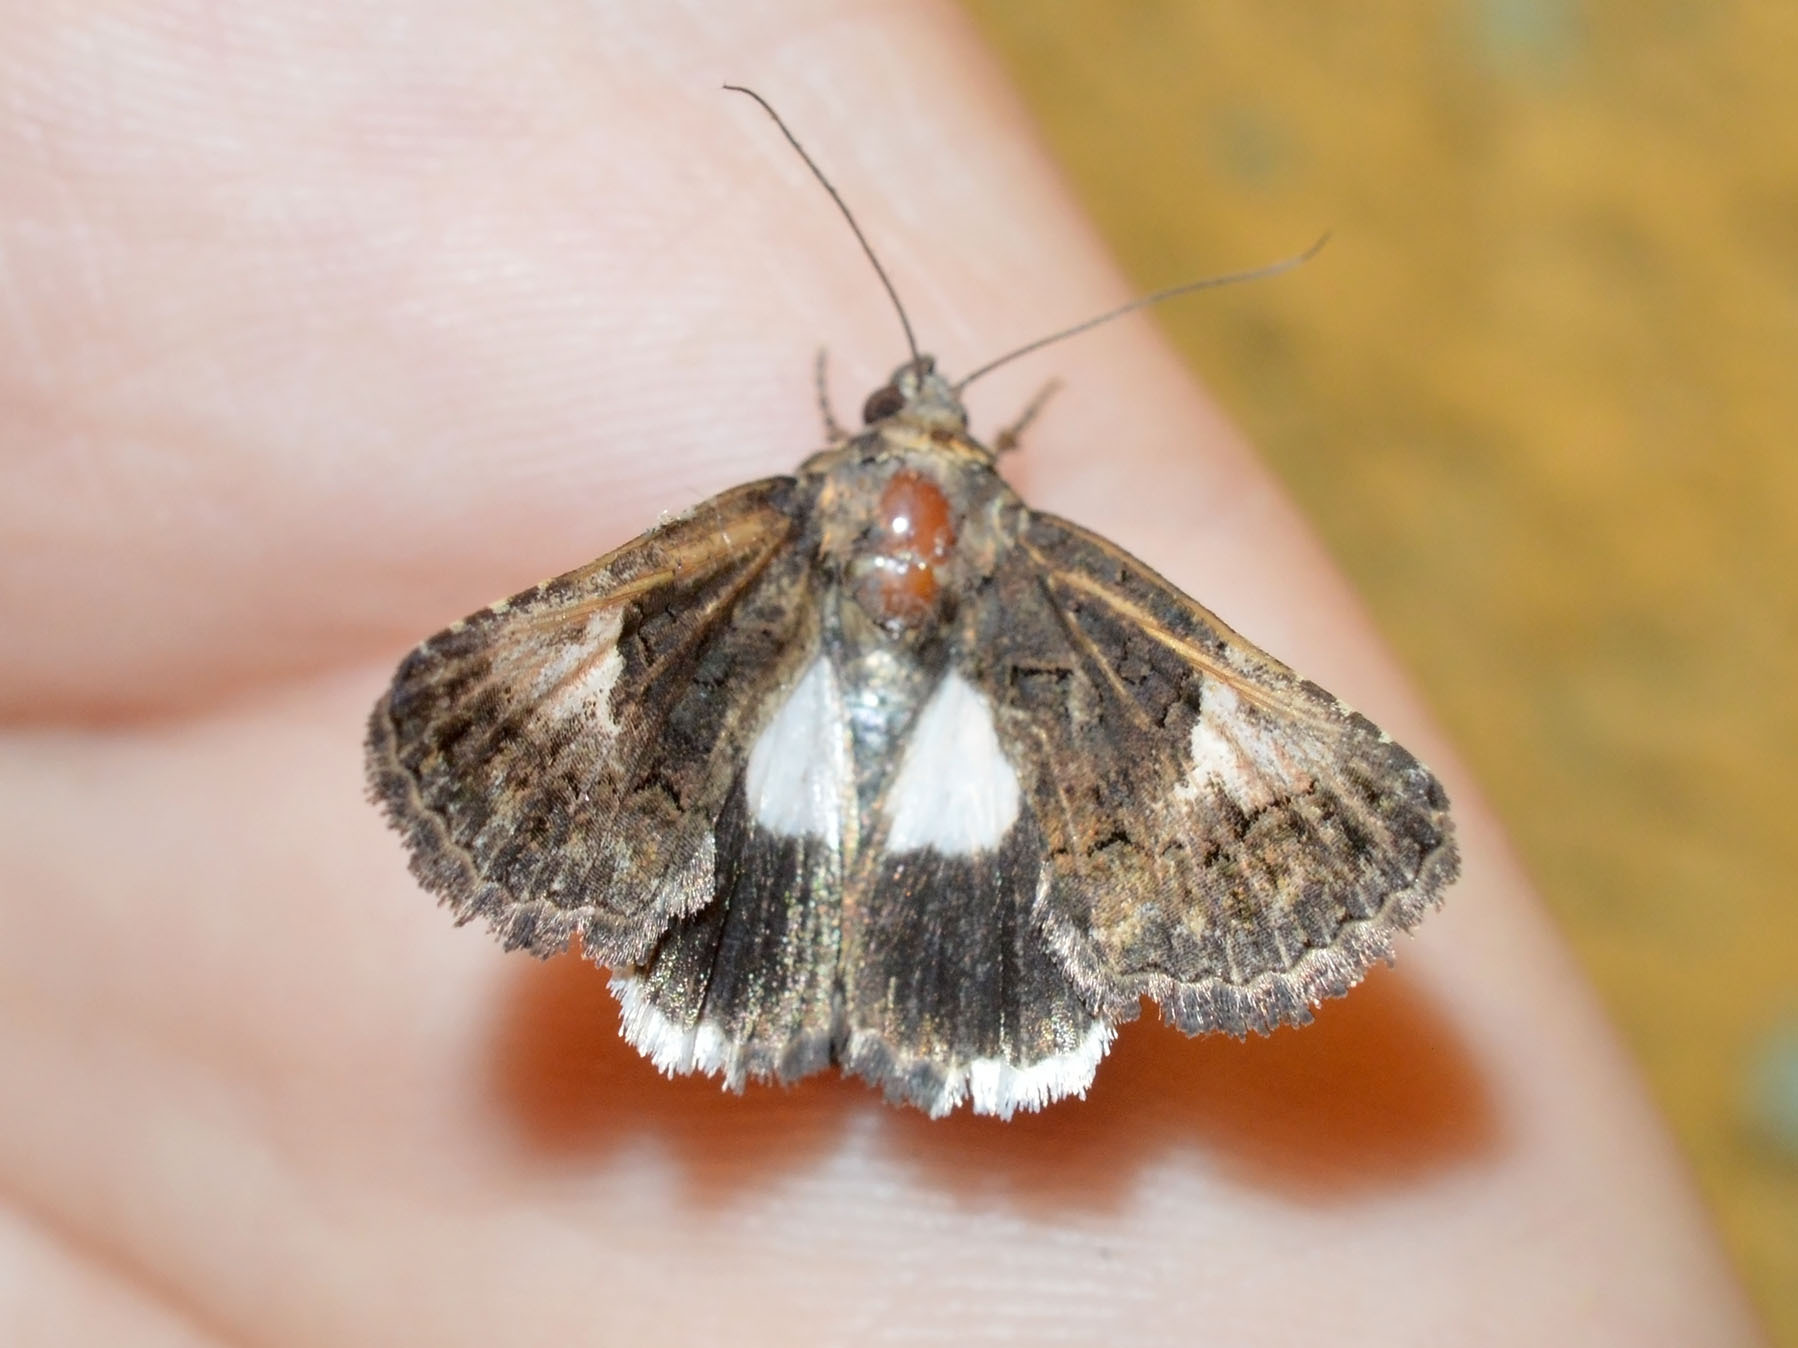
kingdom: Animalia
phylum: Arthropoda
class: Insecta
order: Lepidoptera
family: Noctuidae
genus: Aedia
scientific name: Aedia funesta
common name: The druid
